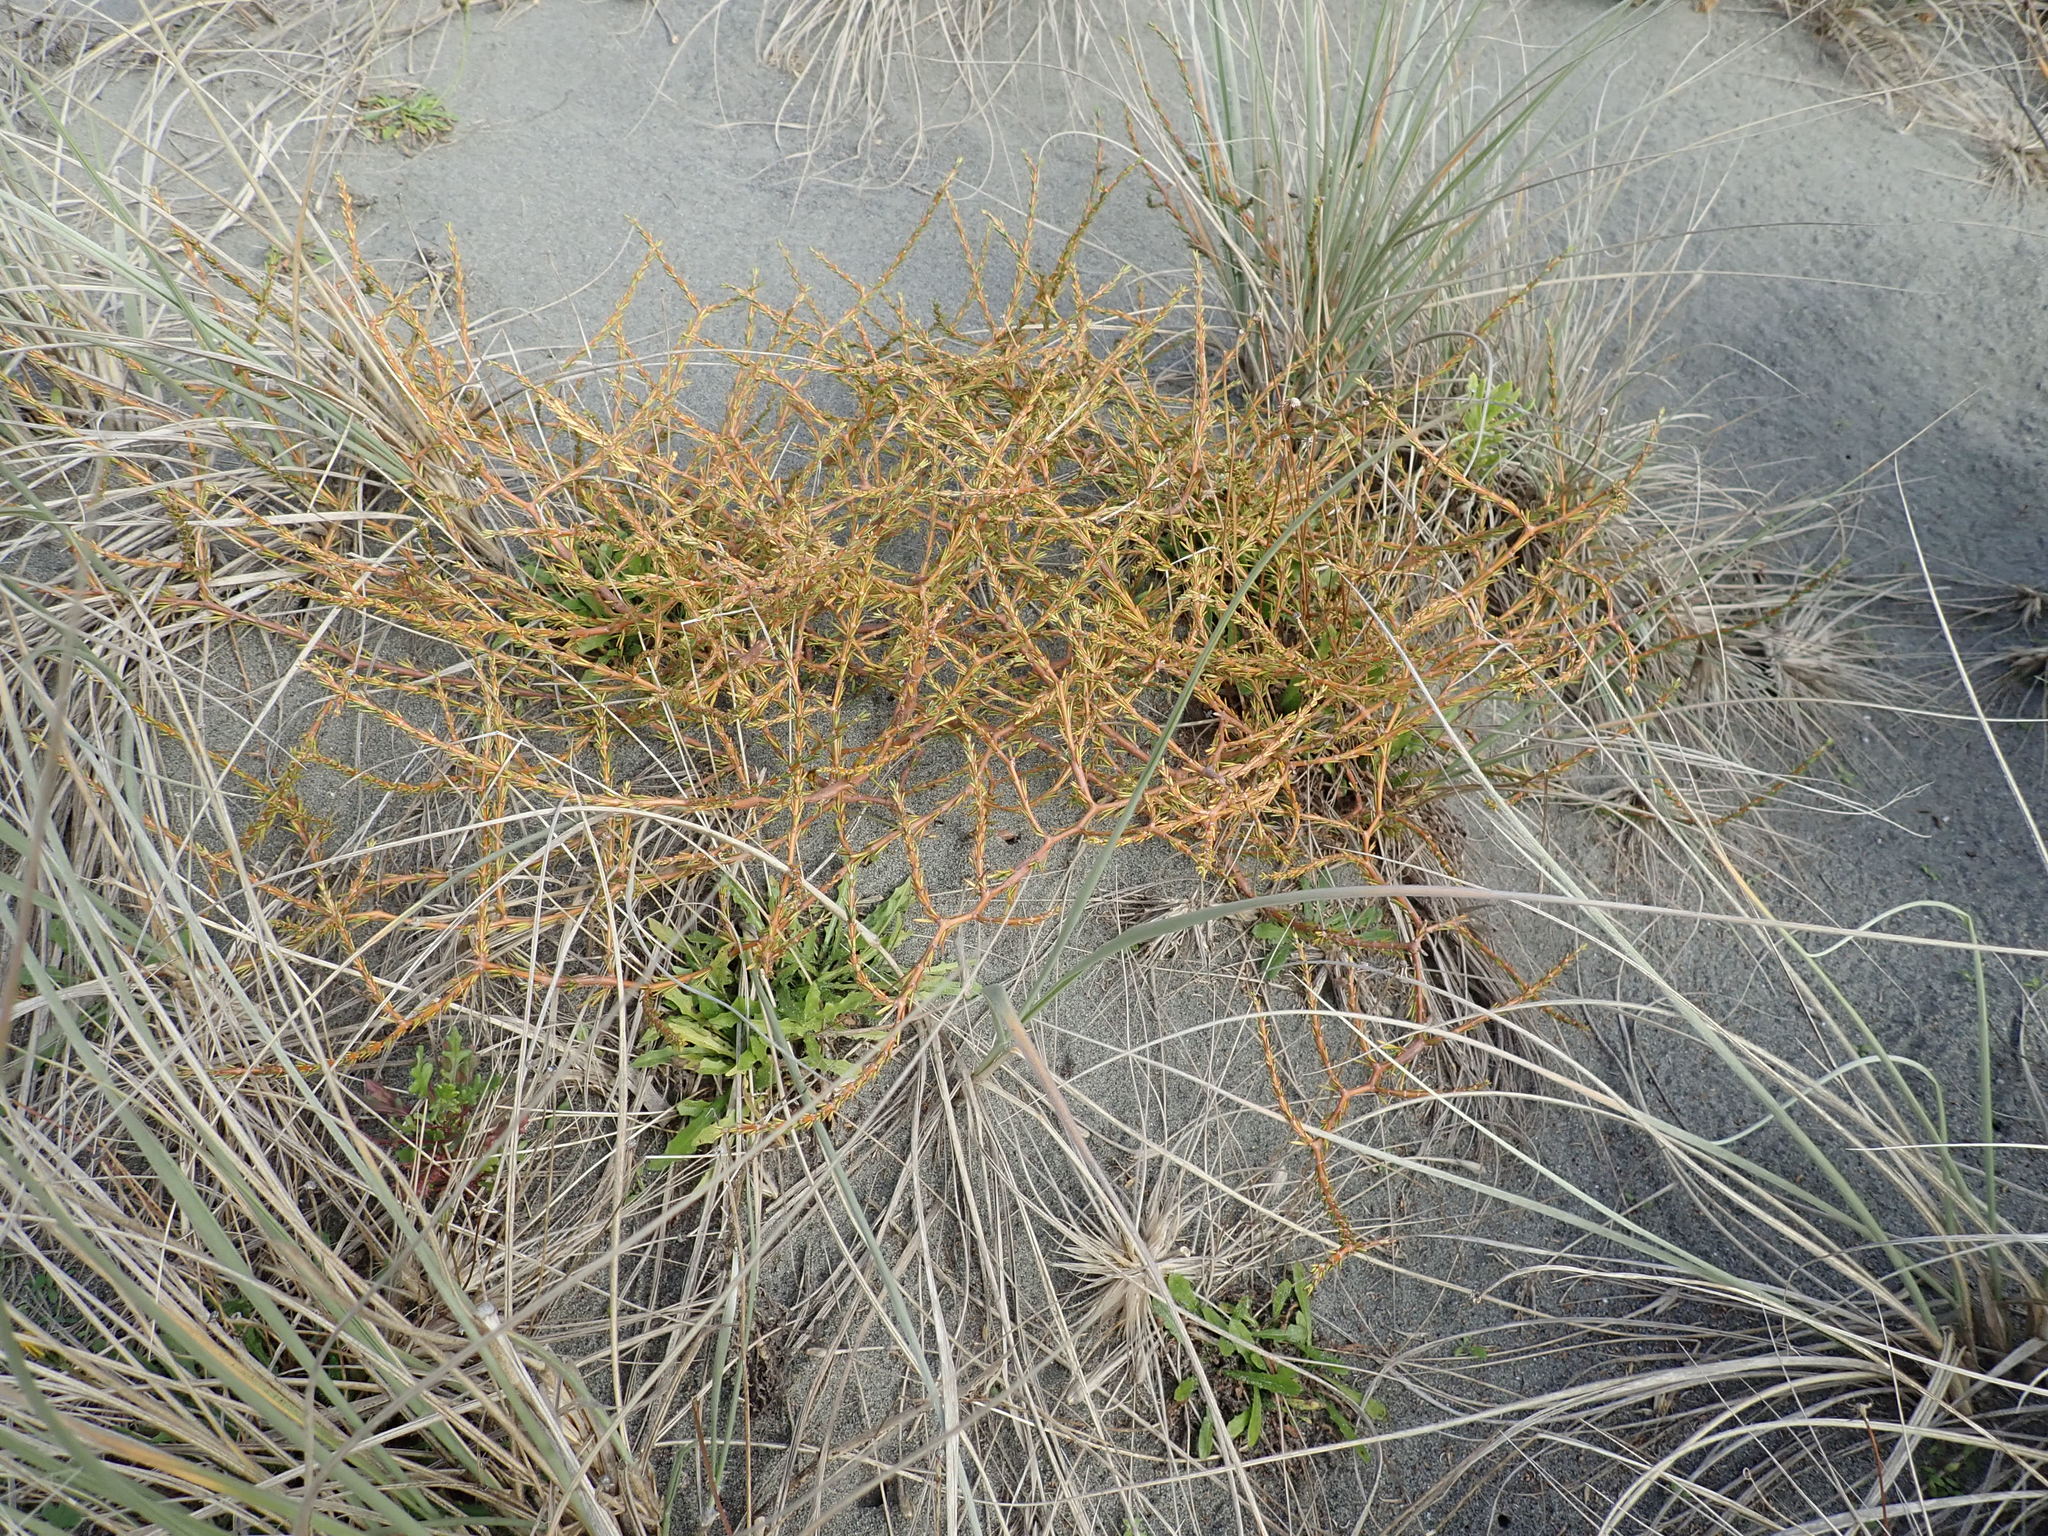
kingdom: Plantae
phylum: Tracheophyta
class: Magnoliopsida
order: Gentianales
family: Rubiaceae
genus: Coprosma
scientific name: Coprosma acerosa
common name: Sand coprosma
